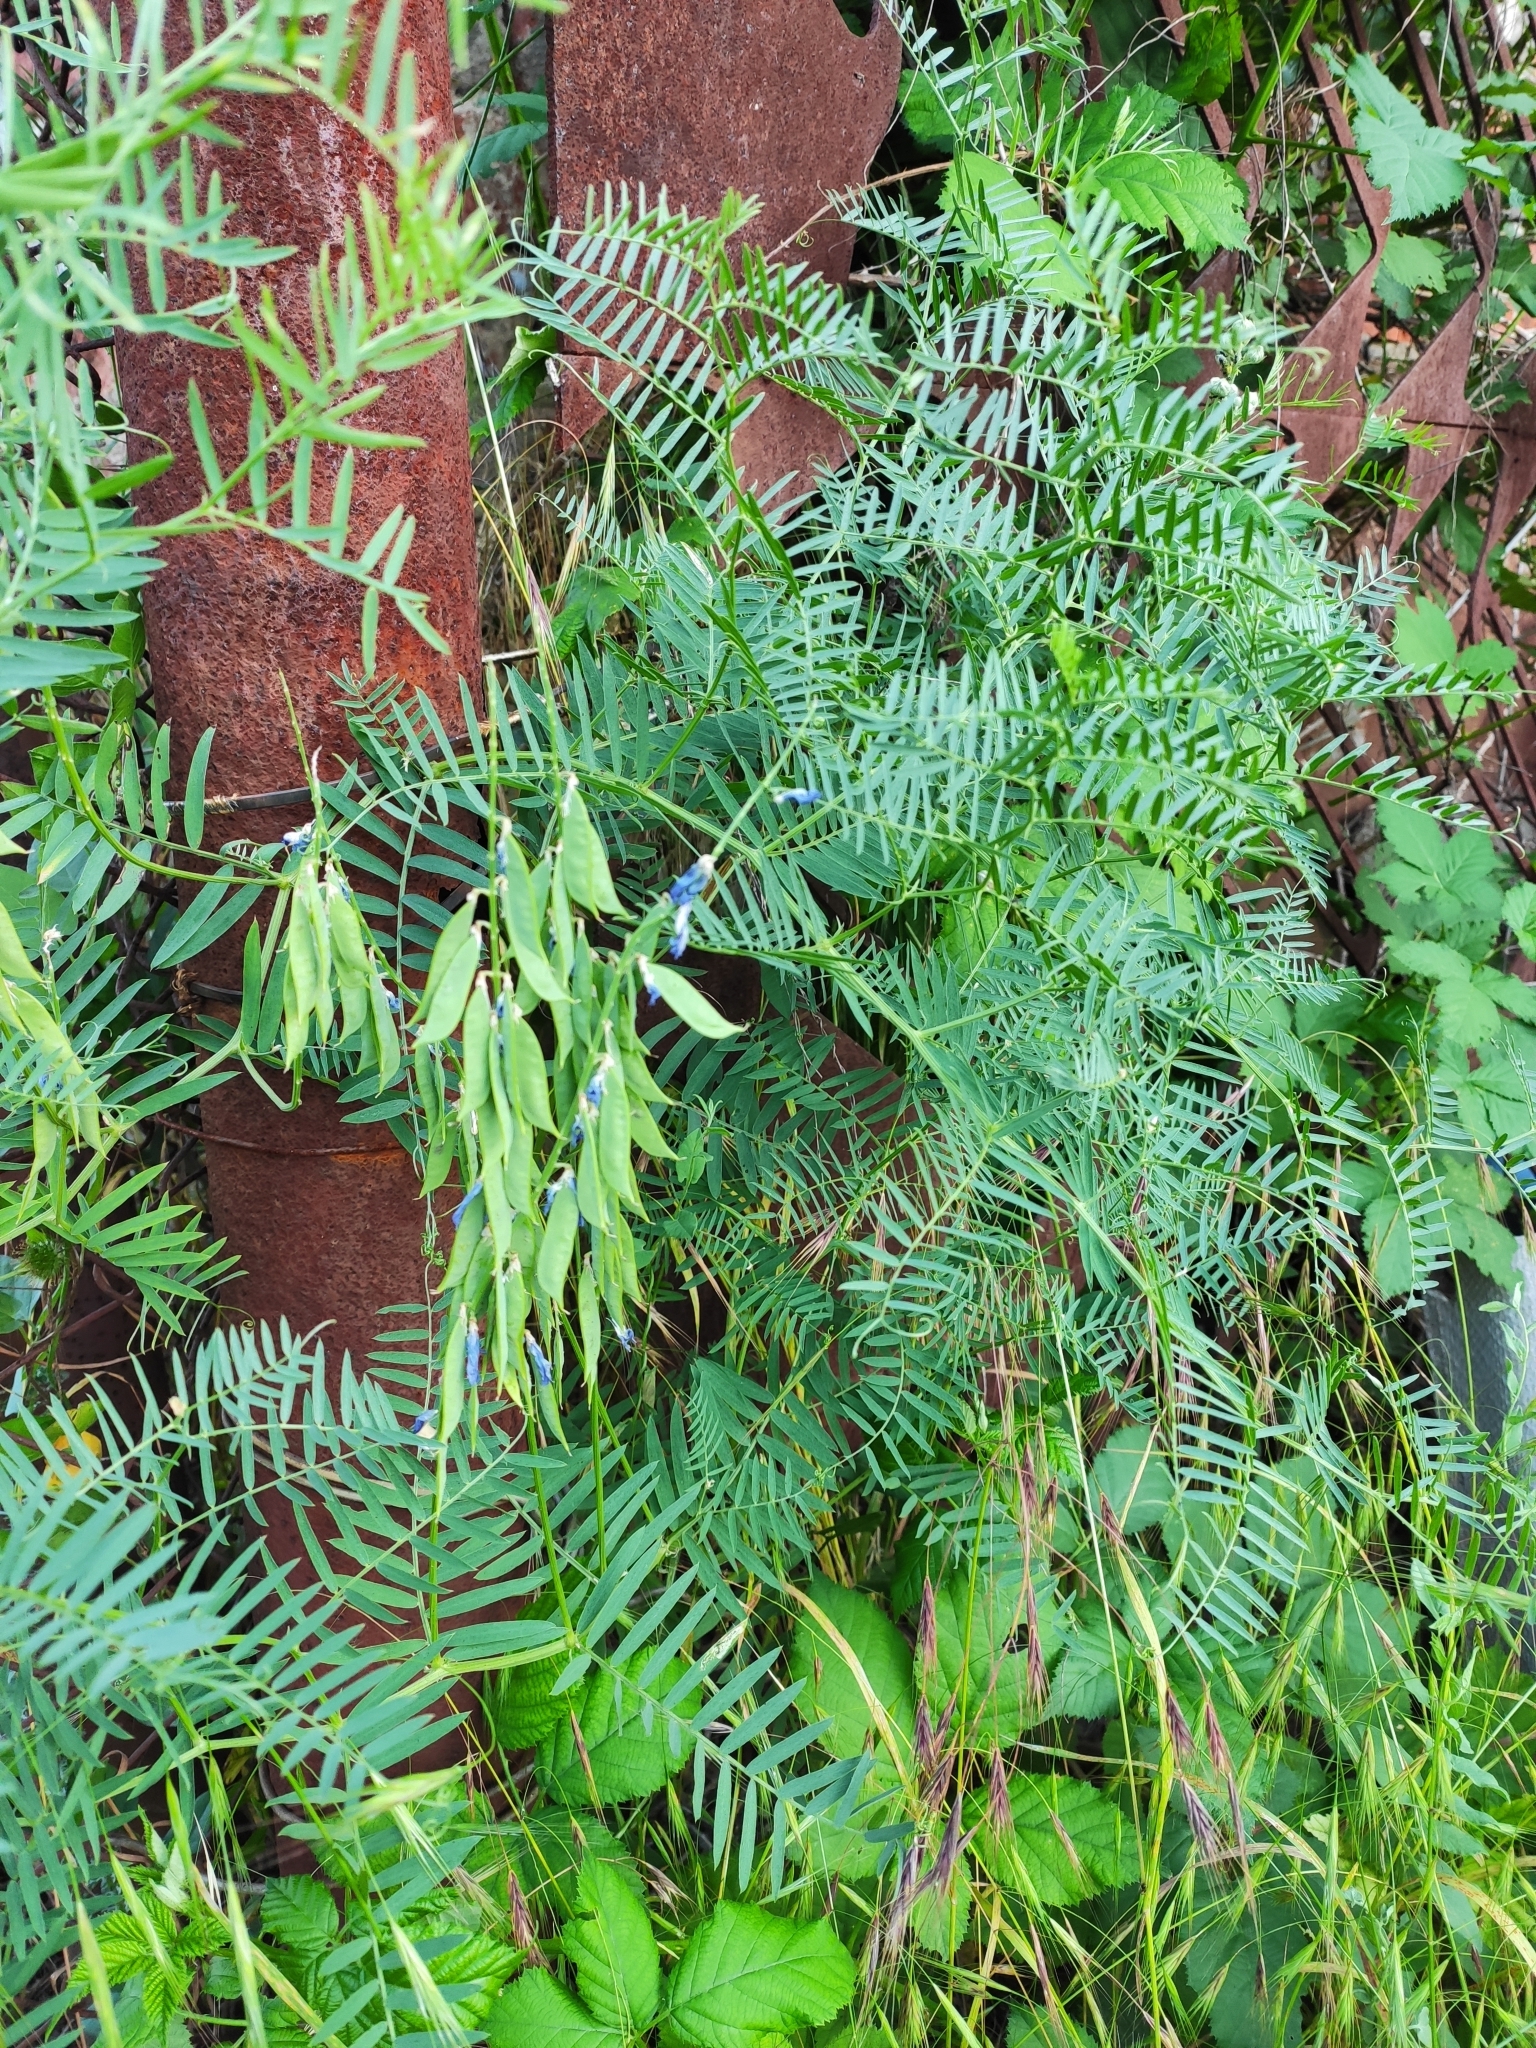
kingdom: Plantae
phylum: Tracheophyta
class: Magnoliopsida
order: Fabales
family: Fabaceae
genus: Vicia
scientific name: Vicia tenuifolia
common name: Fine-leaved vetch
